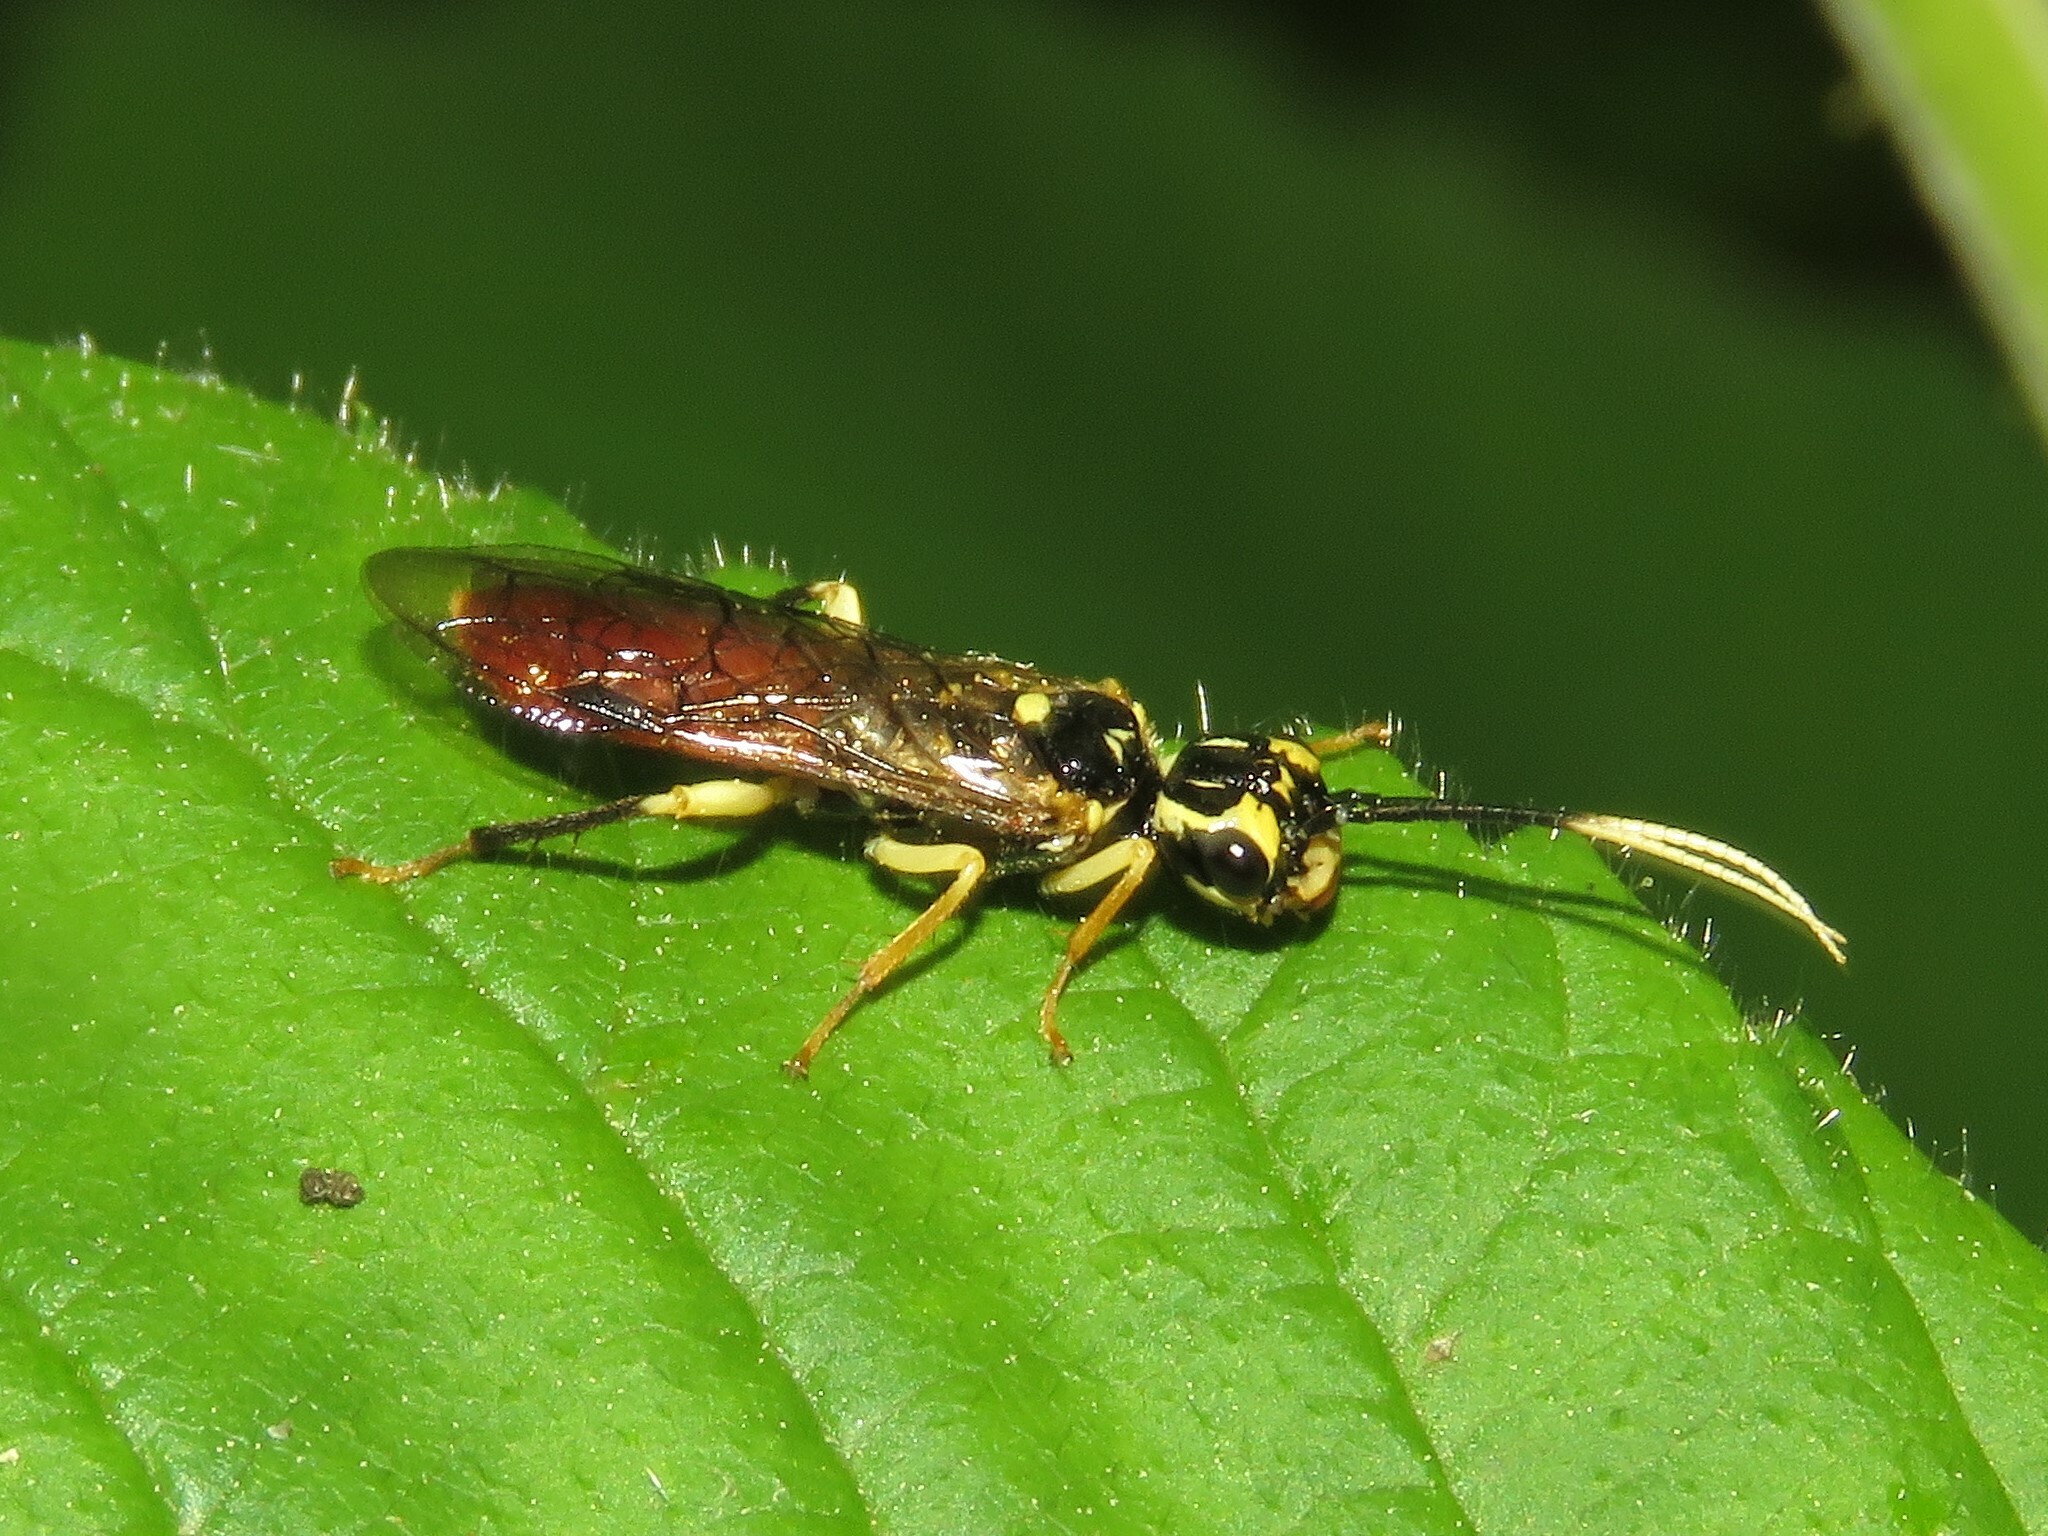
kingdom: Animalia
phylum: Arthropoda
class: Insecta
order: Hymenoptera
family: Pamphiliidae
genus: Onycholyda
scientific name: Onycholyda
